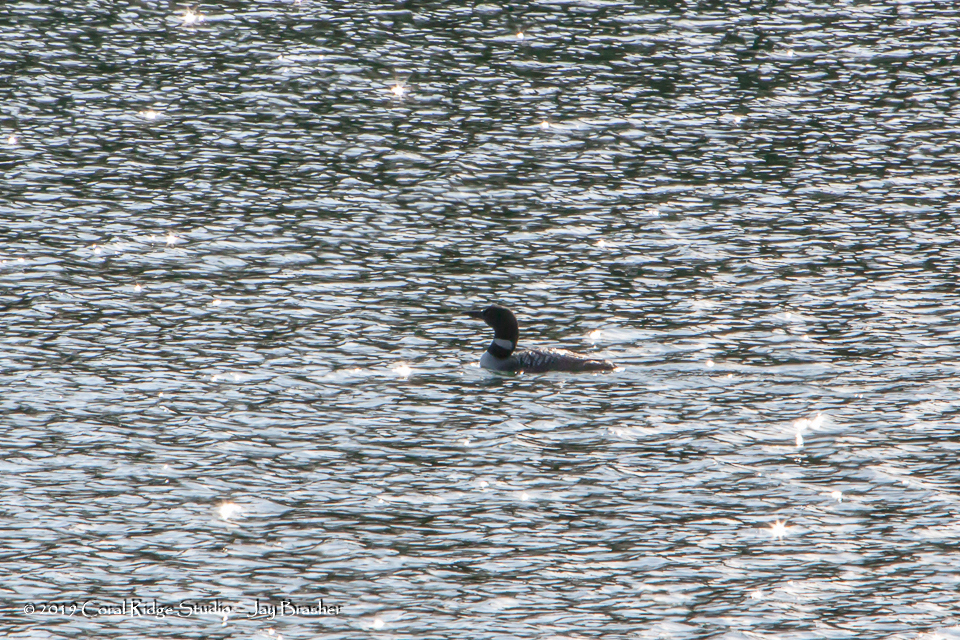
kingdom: Animalia
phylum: Chordata
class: Aves
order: Gaviiformes
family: Gaviidae
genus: Gavia
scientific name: Gavia immer
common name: Common loon
